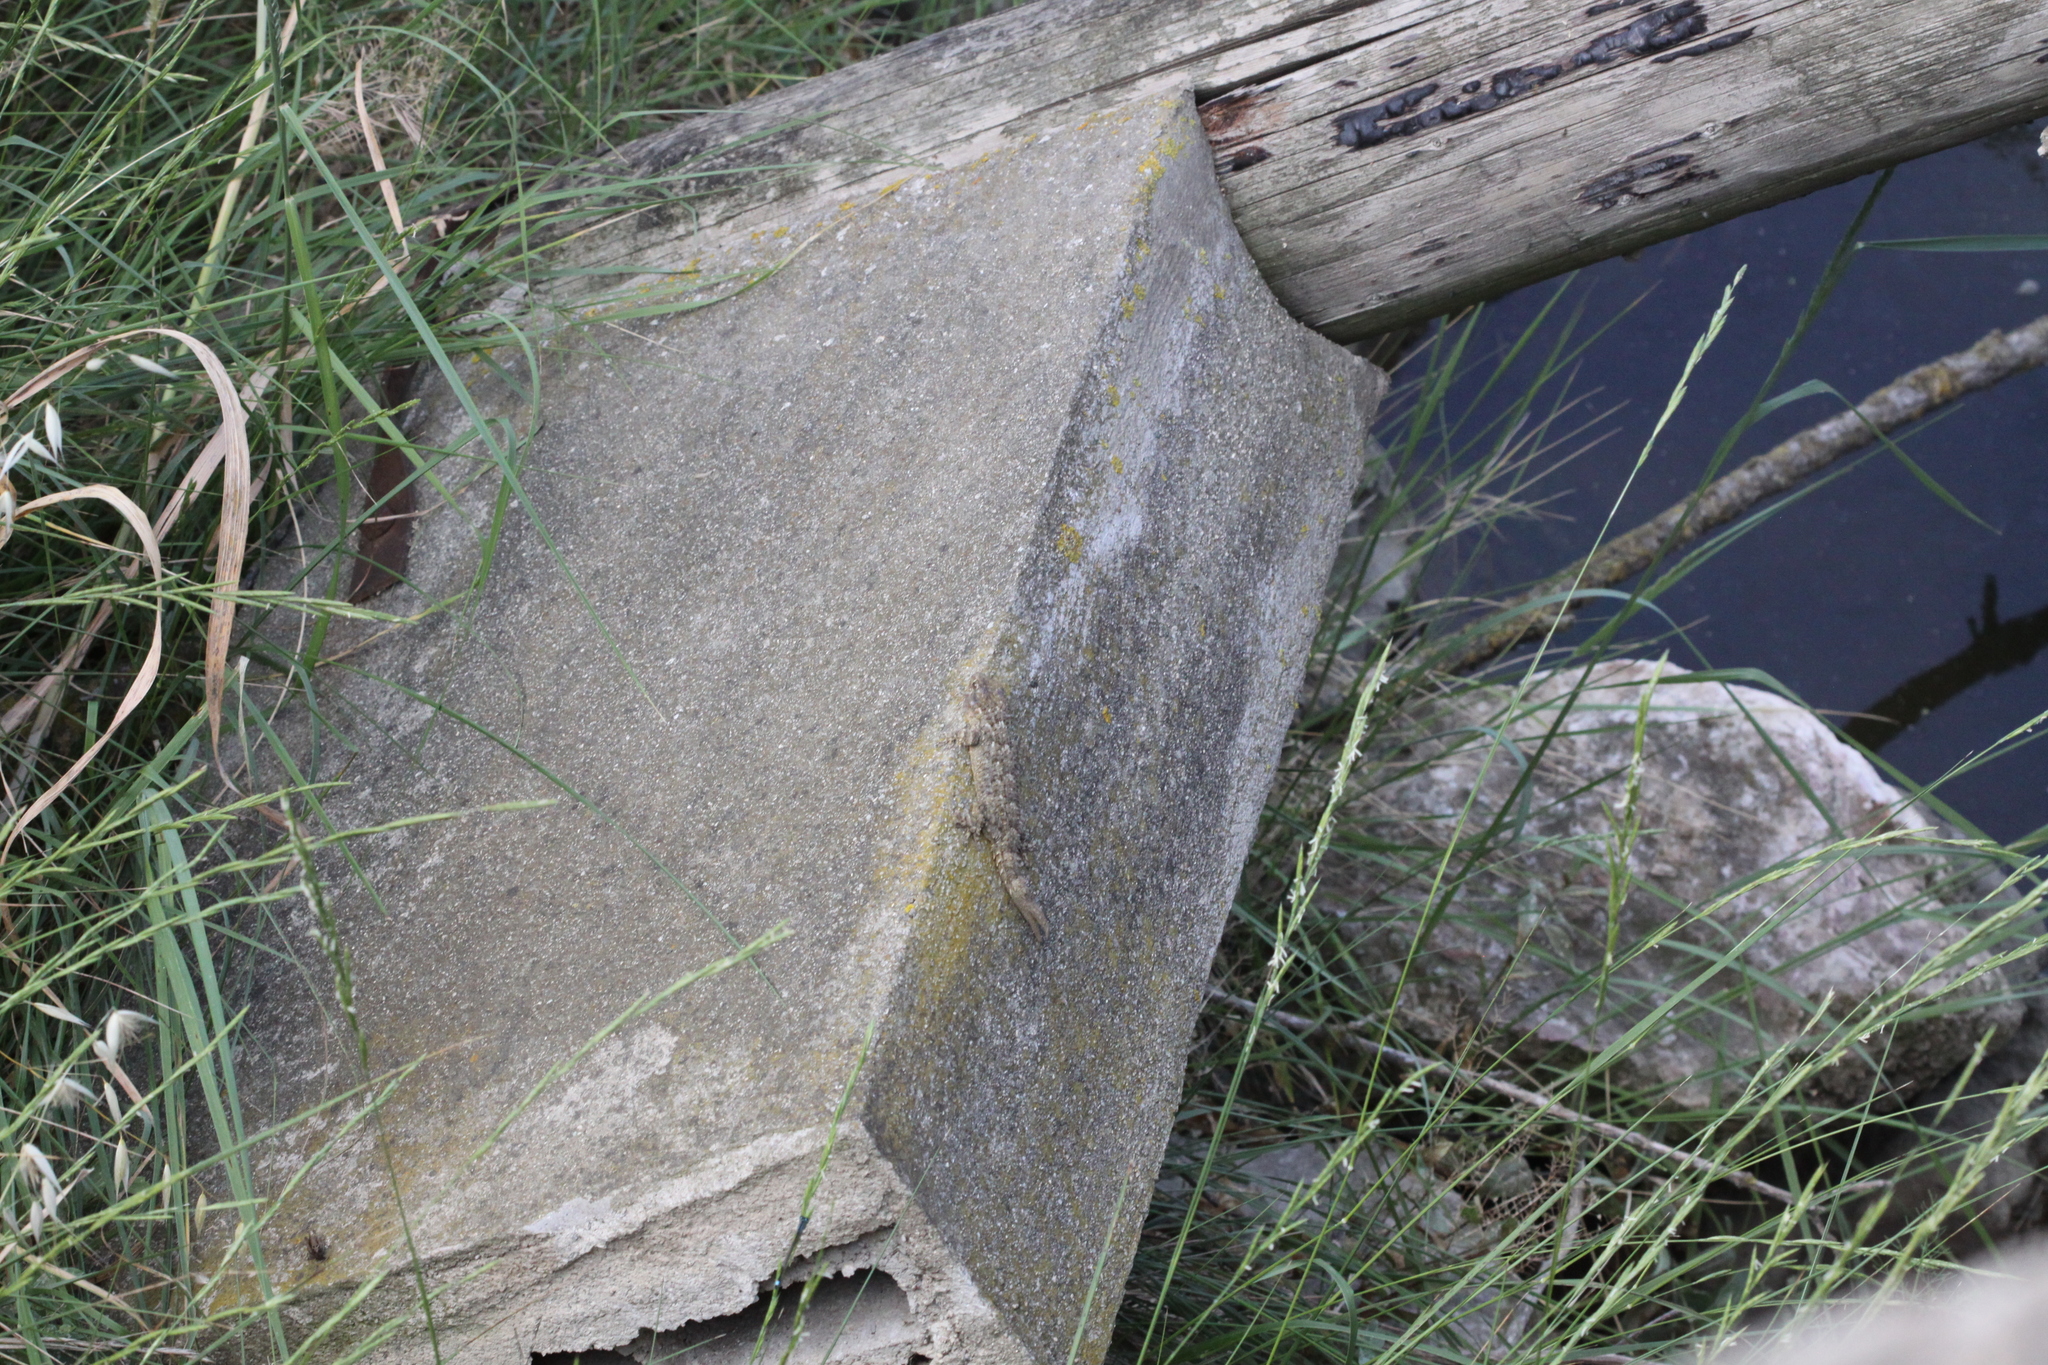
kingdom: Animalia
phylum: Chordata
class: Squamata
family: Phyllodactylidae
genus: Tarentola
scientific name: Tarentola mauritanica
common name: Moorish gecko
